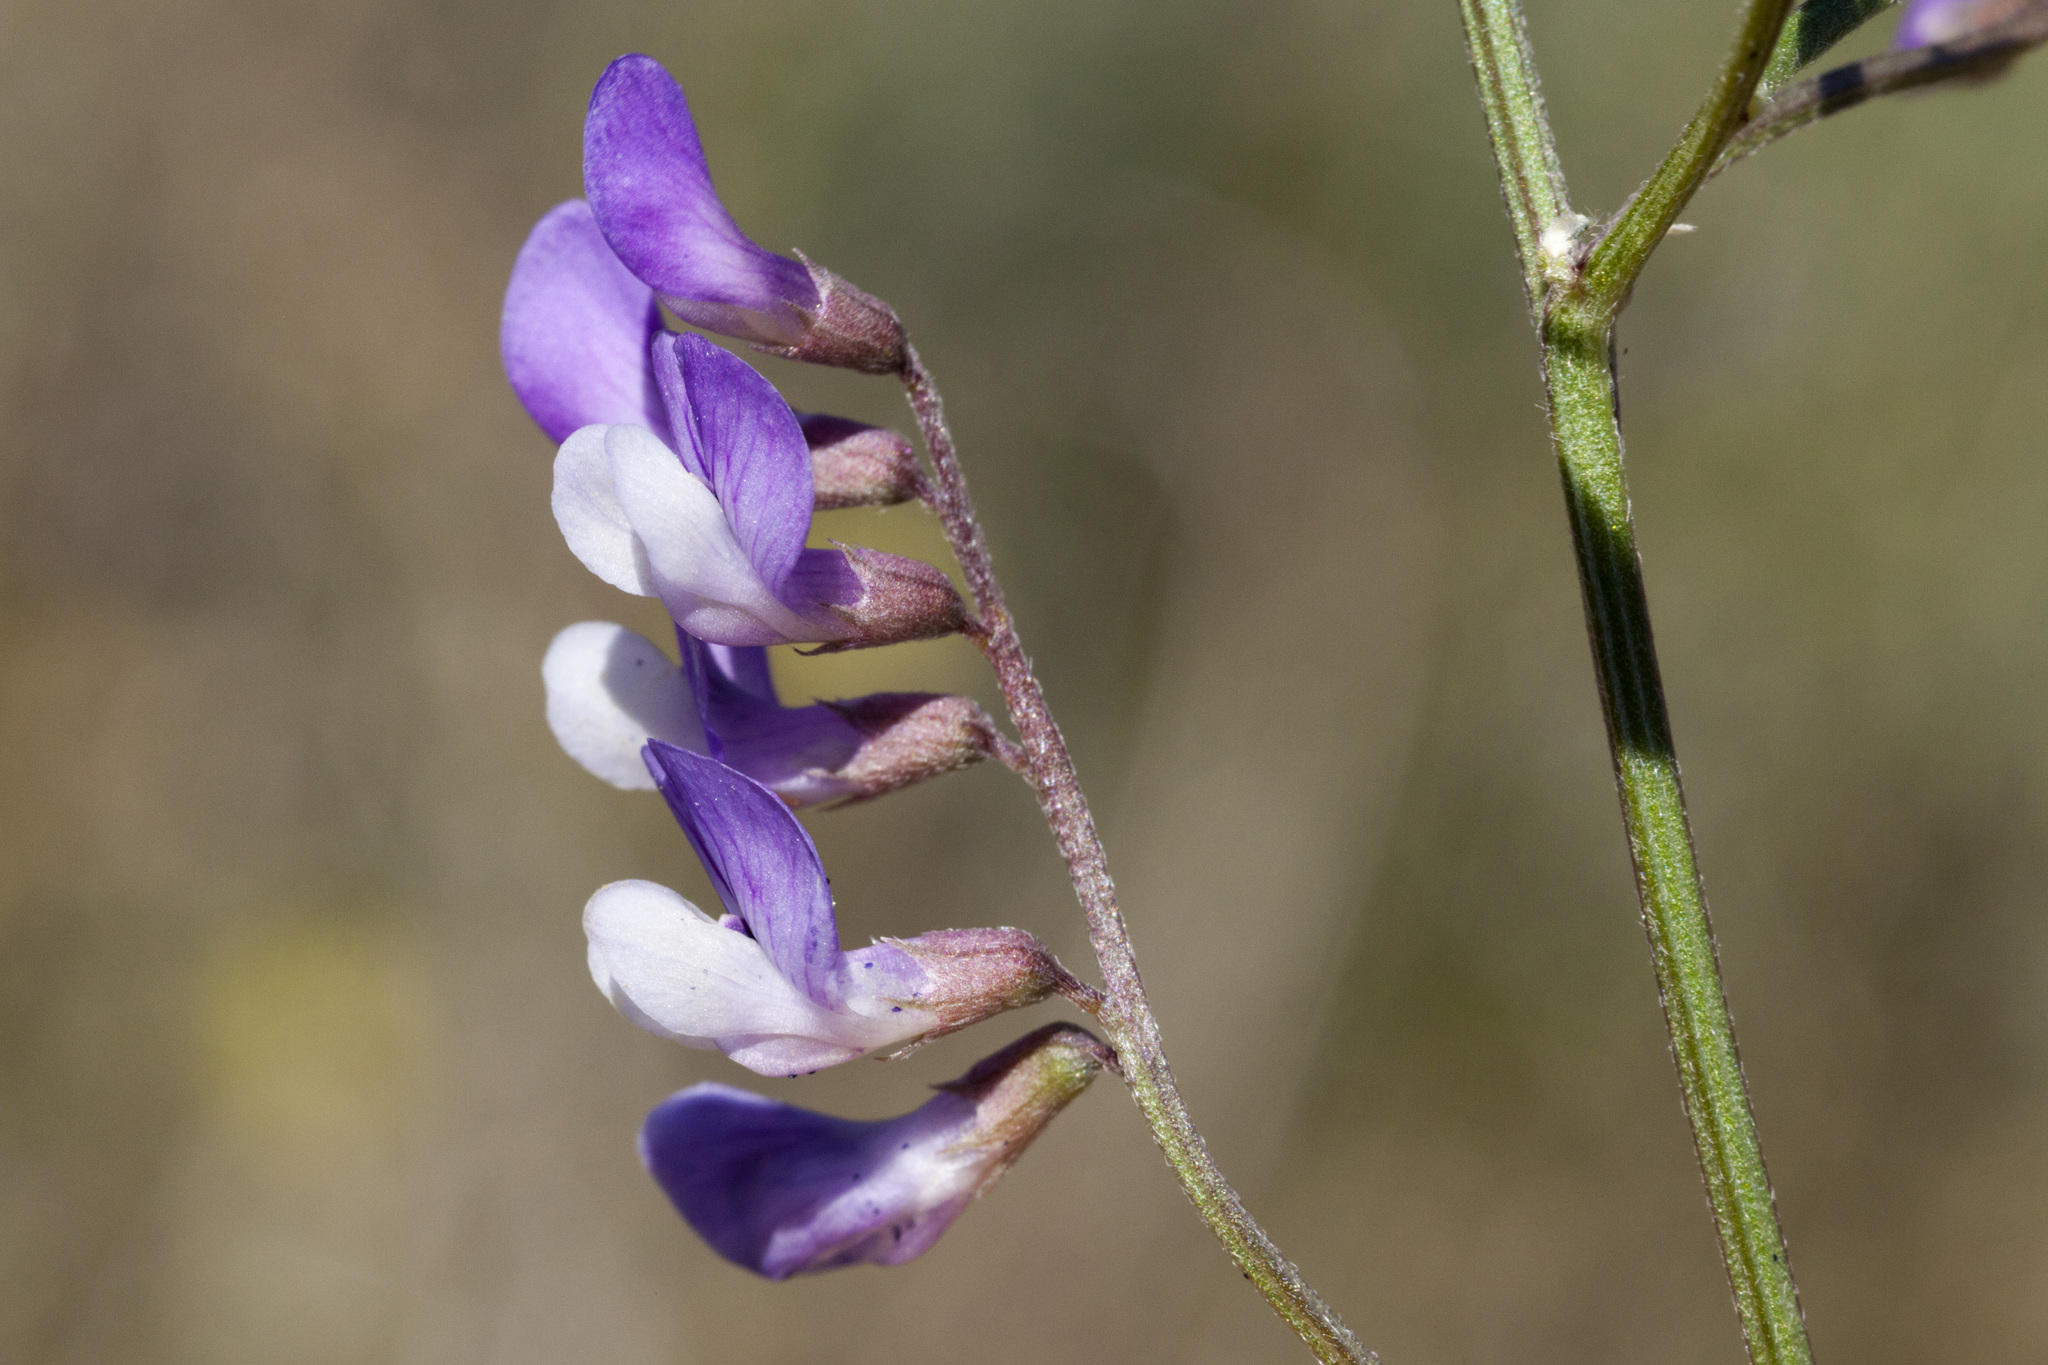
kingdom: Plantae
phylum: Tracheophyta
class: Magnoliopsida
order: Fabales
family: Fabaceae
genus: Vicia
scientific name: Vicia ludoviciana
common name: Louisiana vetch
